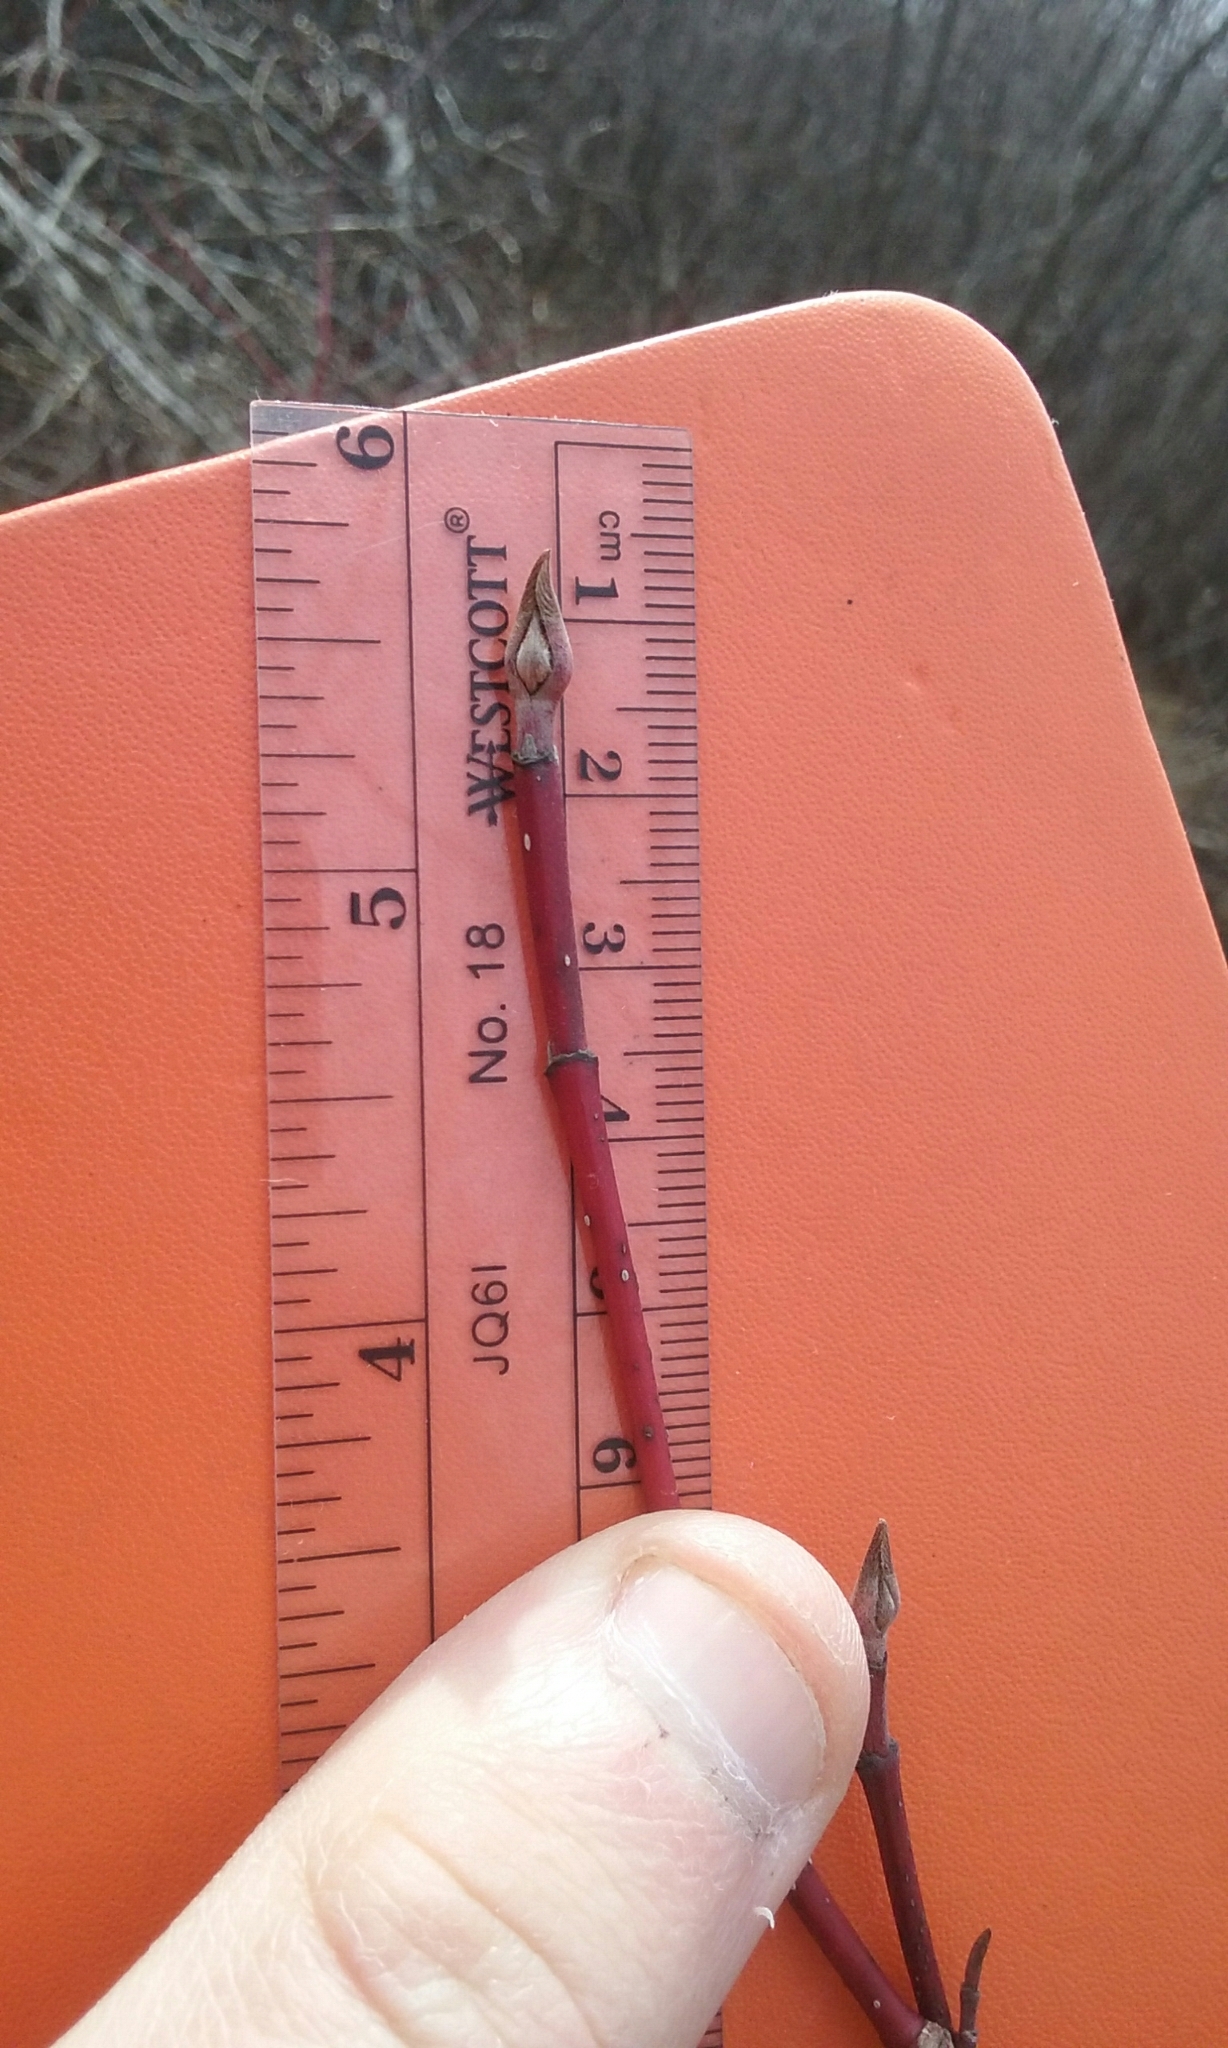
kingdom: Plantae
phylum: Tracheophyta
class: Magnoliopsida
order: Cornales
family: Cornaceae
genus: Cornus
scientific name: Cornus sericea
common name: Red-osier dogwood
